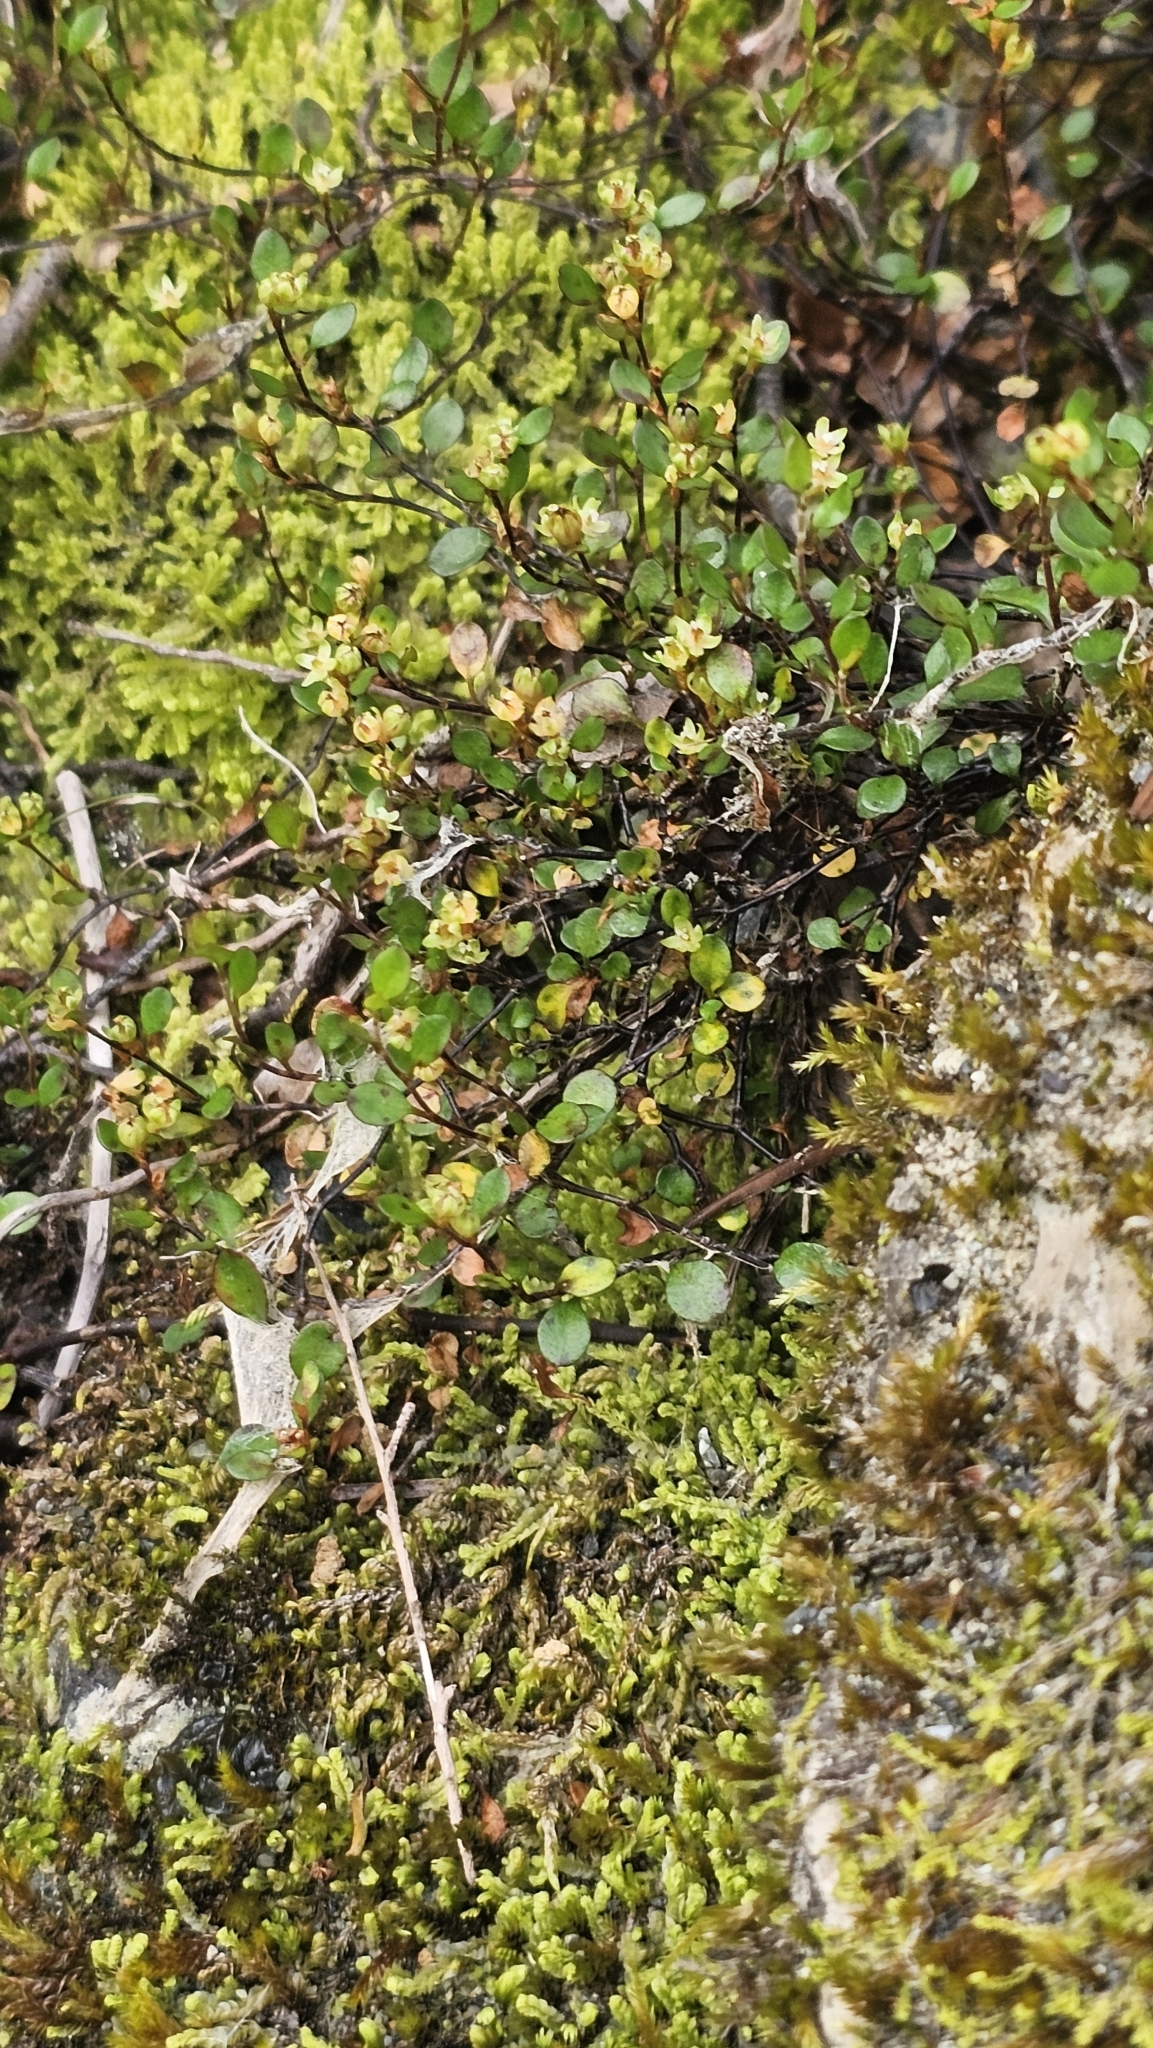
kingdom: Plantae
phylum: Tracheophyta
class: Magnoliopsida
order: Caryophyllales
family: Polygonaceae
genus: Muehlenbeckia
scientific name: Muehlenbeckia axillaris
